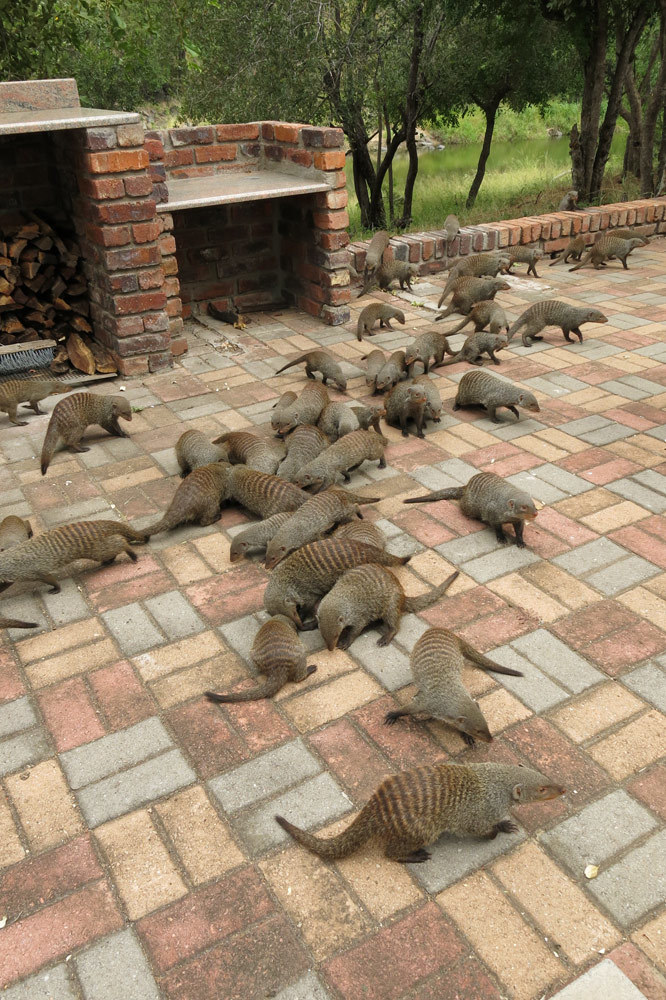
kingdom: Animalia
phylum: Chordata
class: Mammalia
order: Carnivora
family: Herpestidae
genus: Mungos
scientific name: Mungos mungo
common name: Banded mongoose
